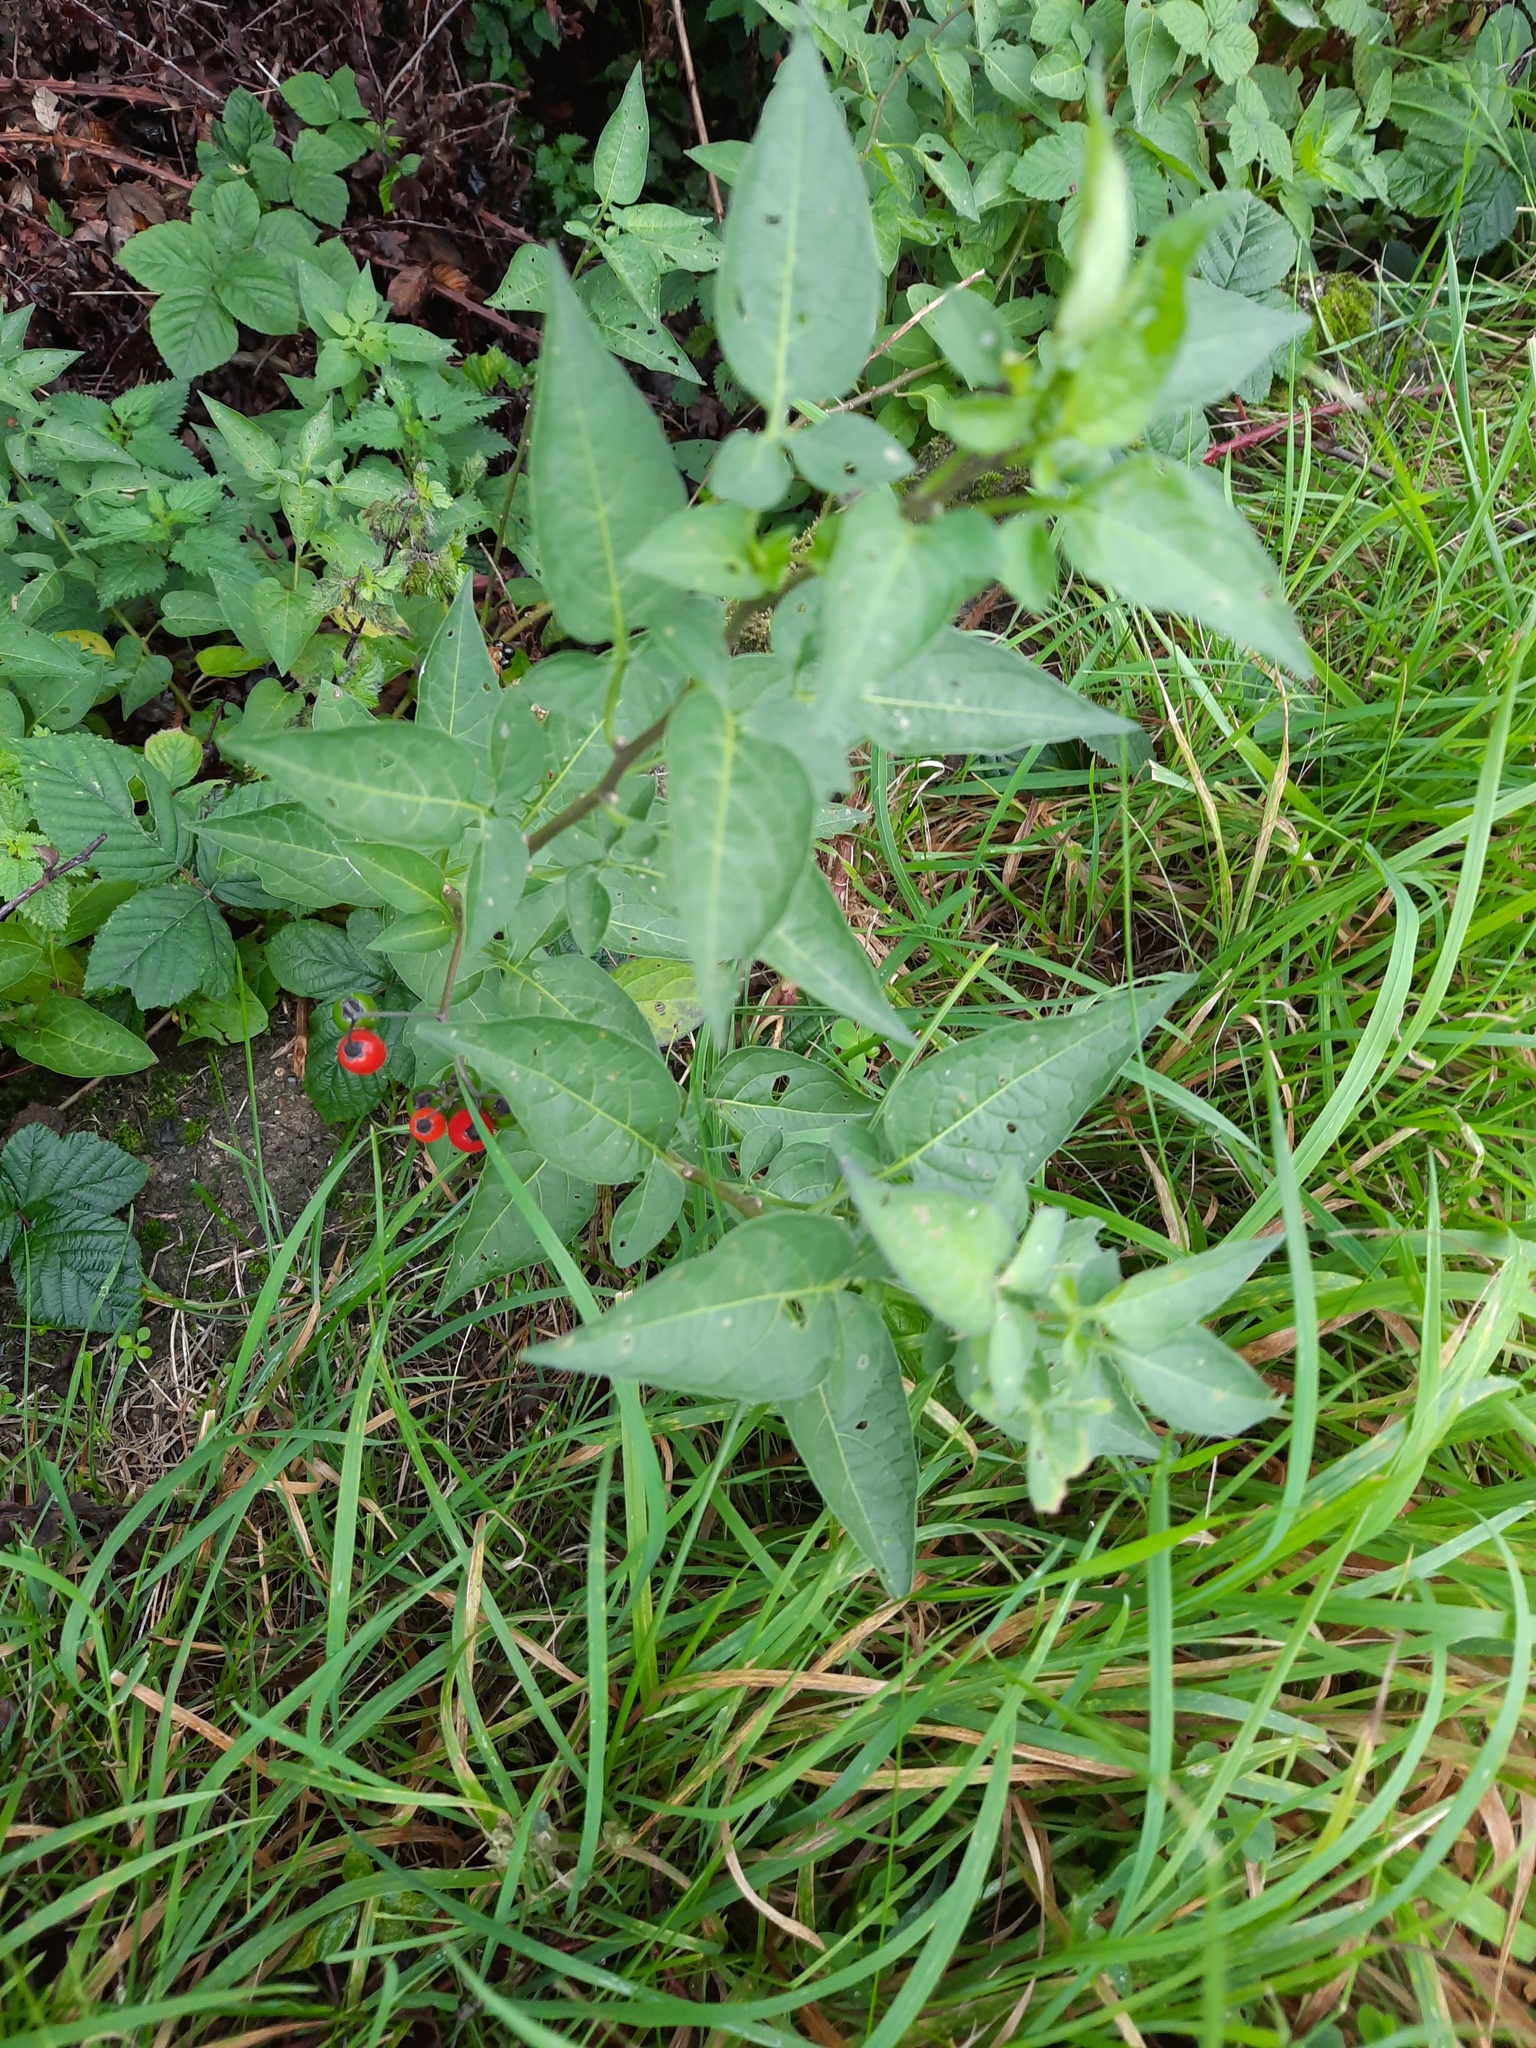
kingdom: Plantae
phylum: Tracheophyta
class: Magnoliopsida
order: Solanales
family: Solanaceae
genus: Solanum
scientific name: Solanum dulcamara
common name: Climbing nightshade
